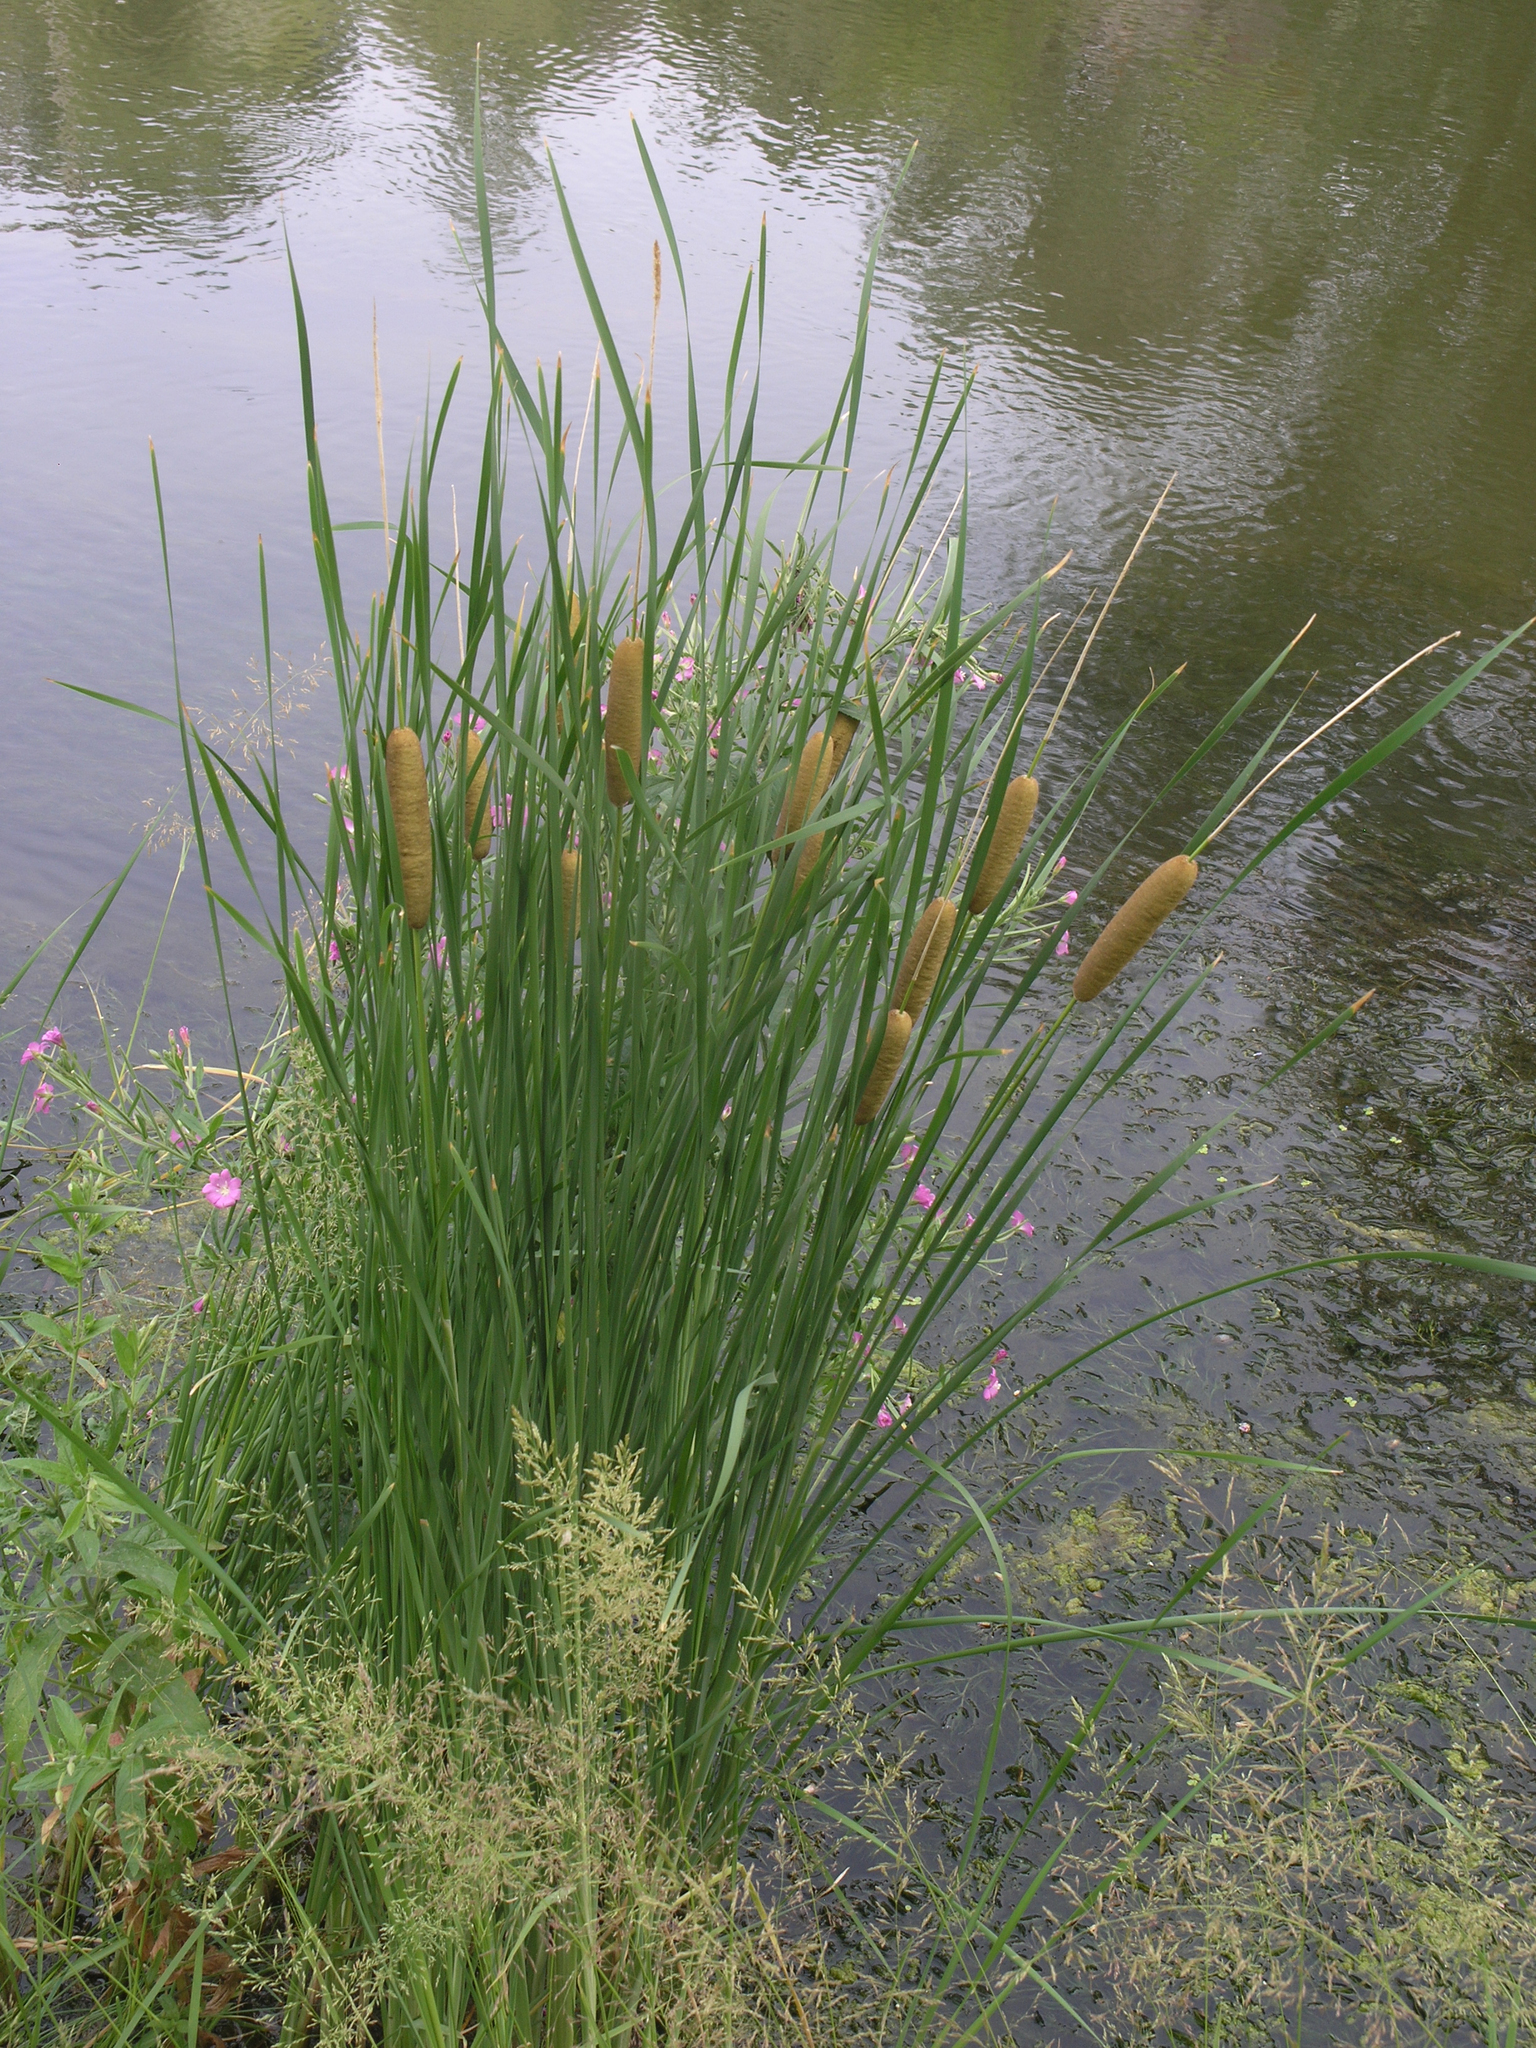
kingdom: Plantae
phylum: Tracheophyta
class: Liliopsida
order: Poales
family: Typhaceae
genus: Typha
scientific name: Typha laxmannii
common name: Laxman’s bulrush
